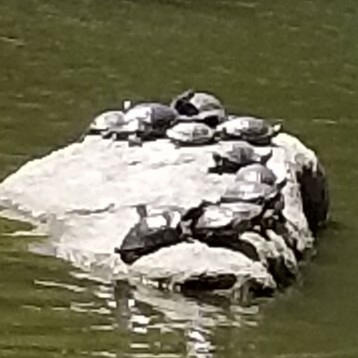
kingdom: Animalia
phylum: Chordata
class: Testudines
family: Emydidae
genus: Trachemys
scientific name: Trachemys scripta
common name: Slider
